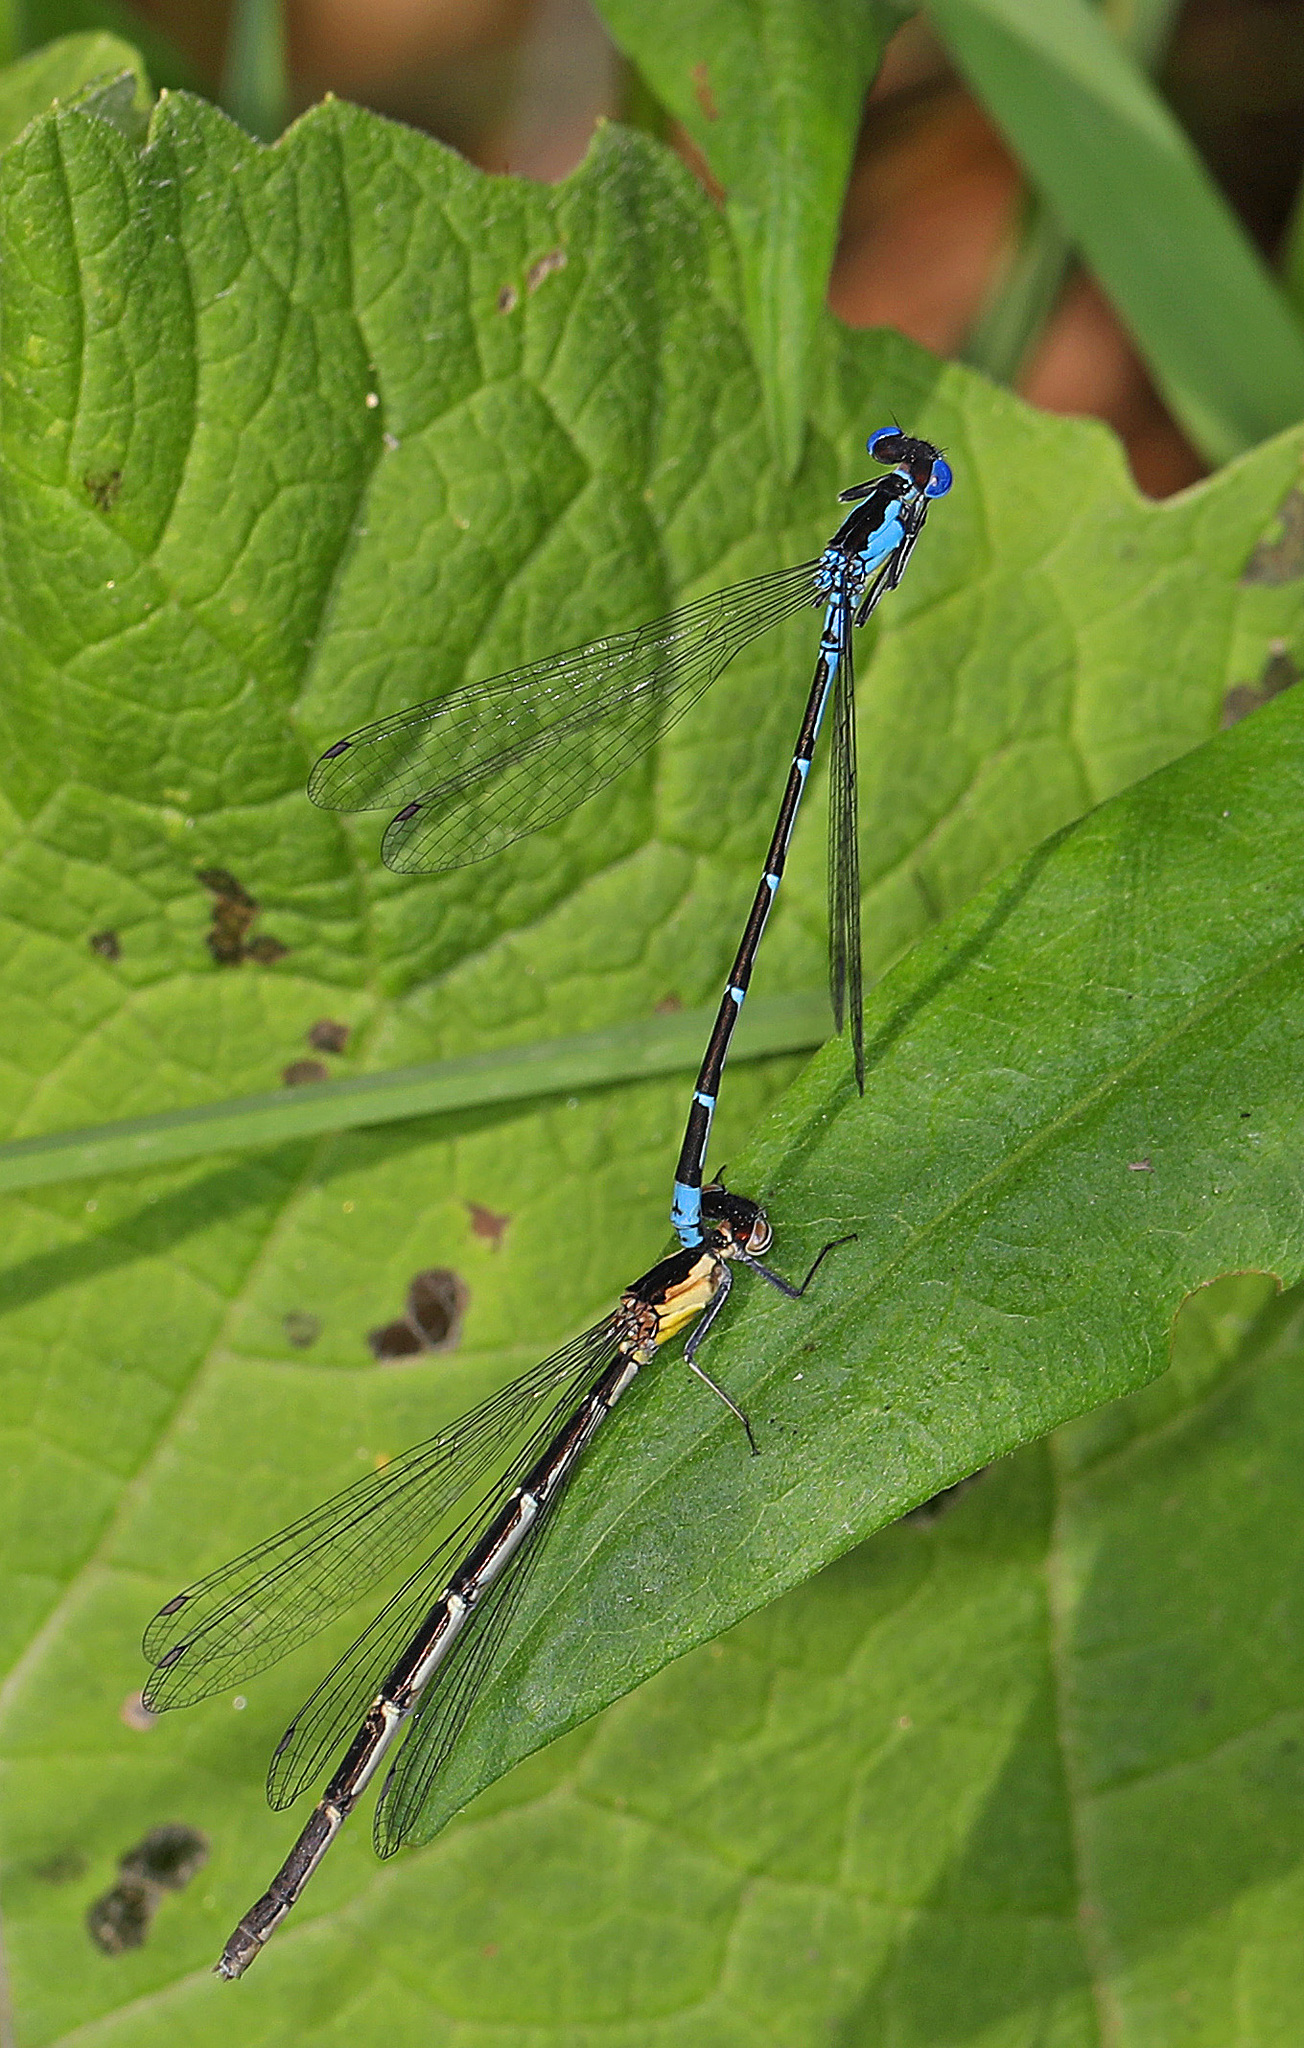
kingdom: Animalia
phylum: Arthropoda
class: Insecta
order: Odonata
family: Coenagrionidae
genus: Chromagrion
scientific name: Chromagrion conditum
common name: Aurora damsel
